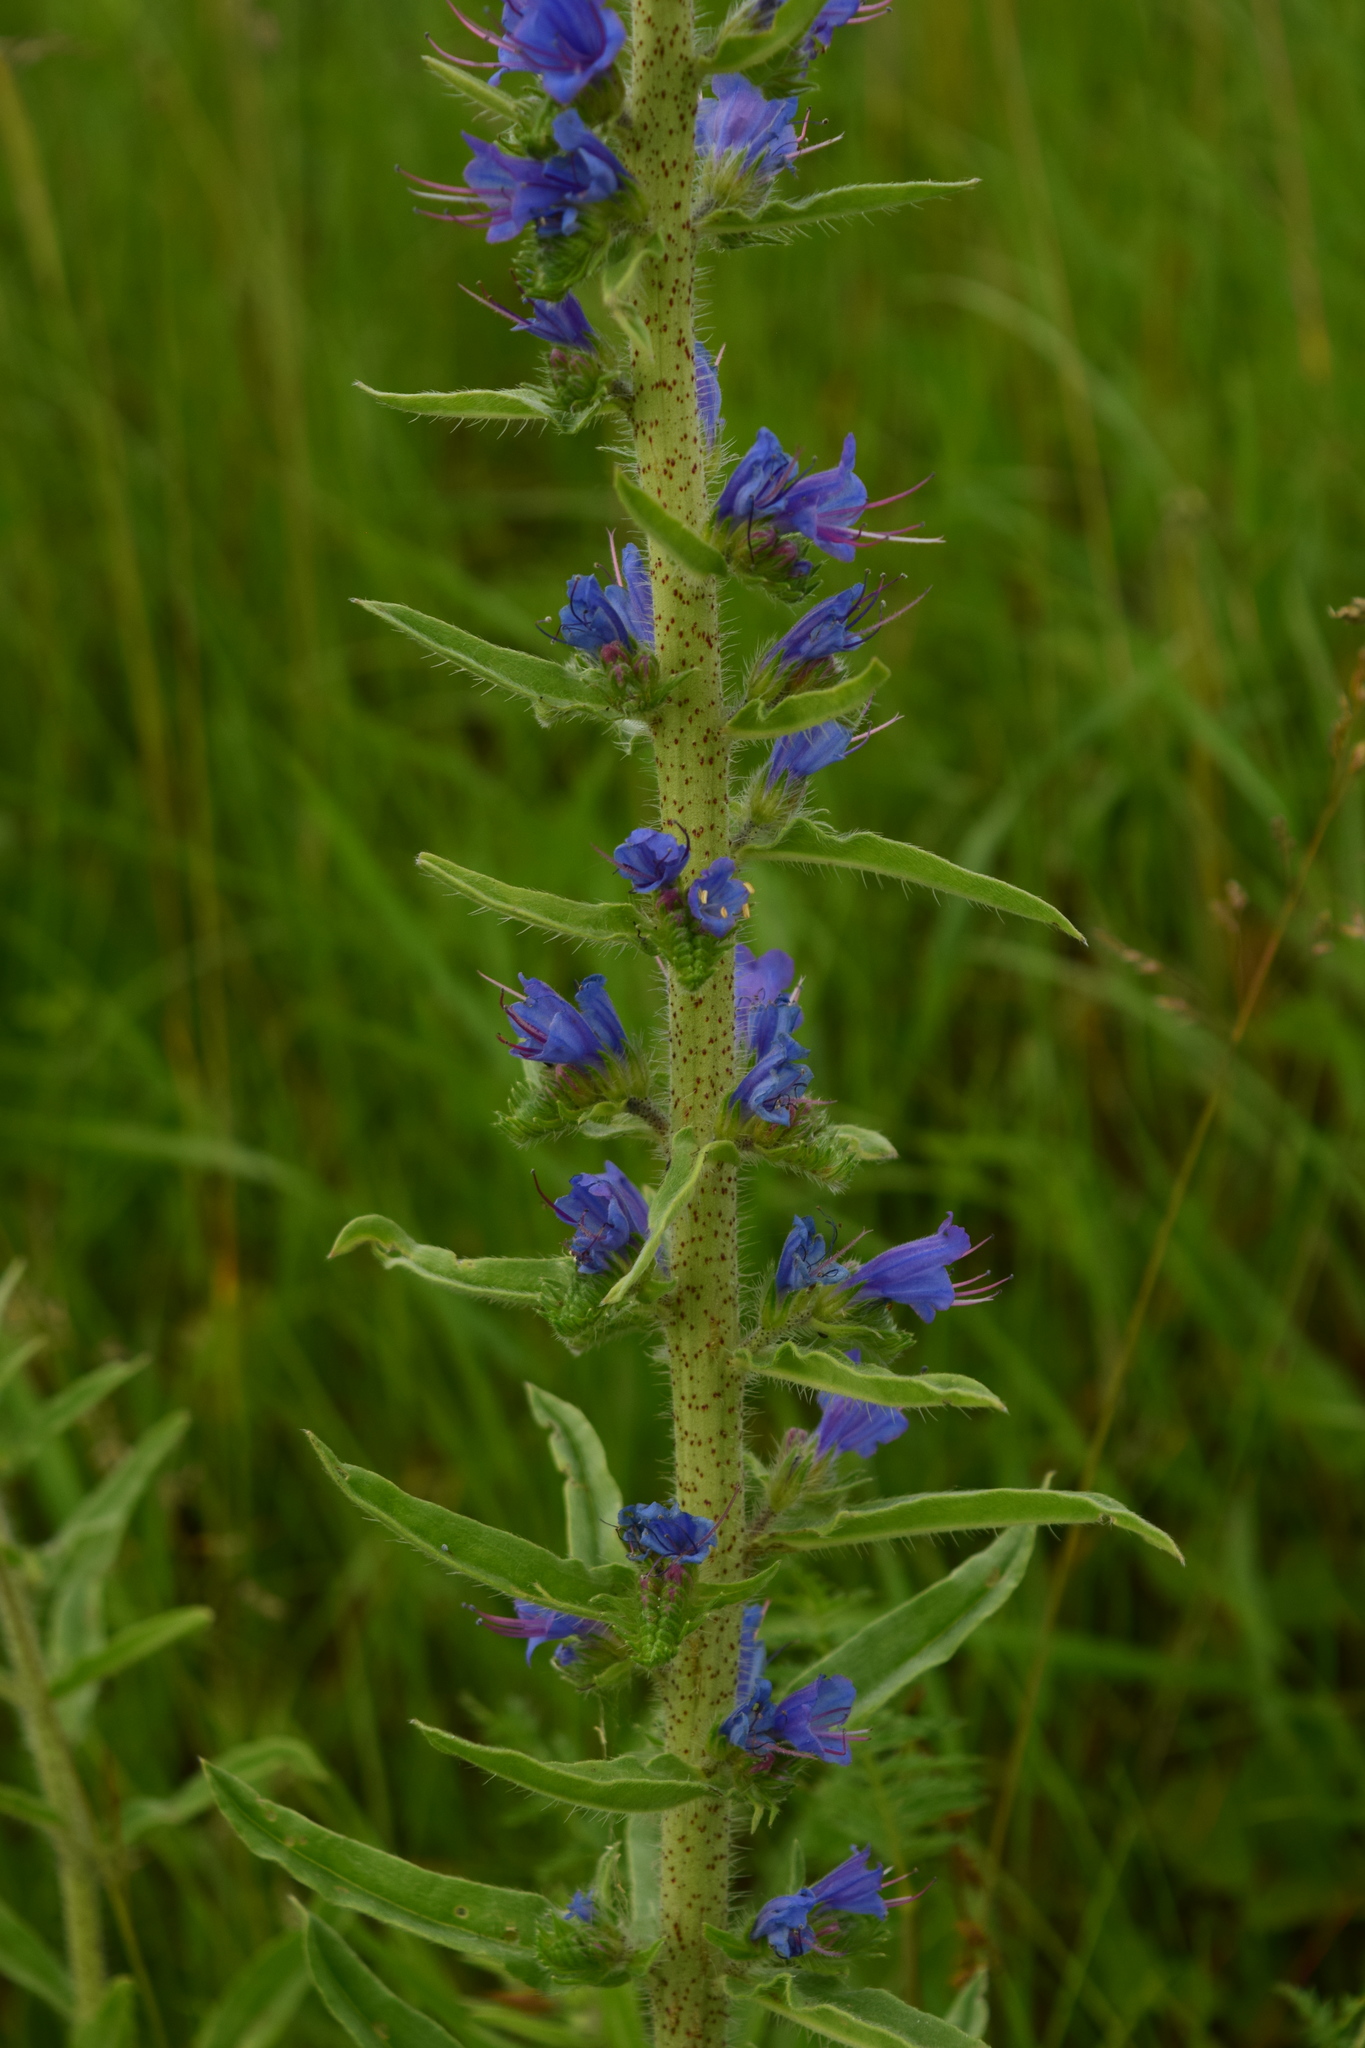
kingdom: Plantae
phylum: Tracheophyta
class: Magnoliopsida
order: Boraginales
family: Boraginaceae
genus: Echium
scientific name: Echium vulgare
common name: Common viper's bugloss
